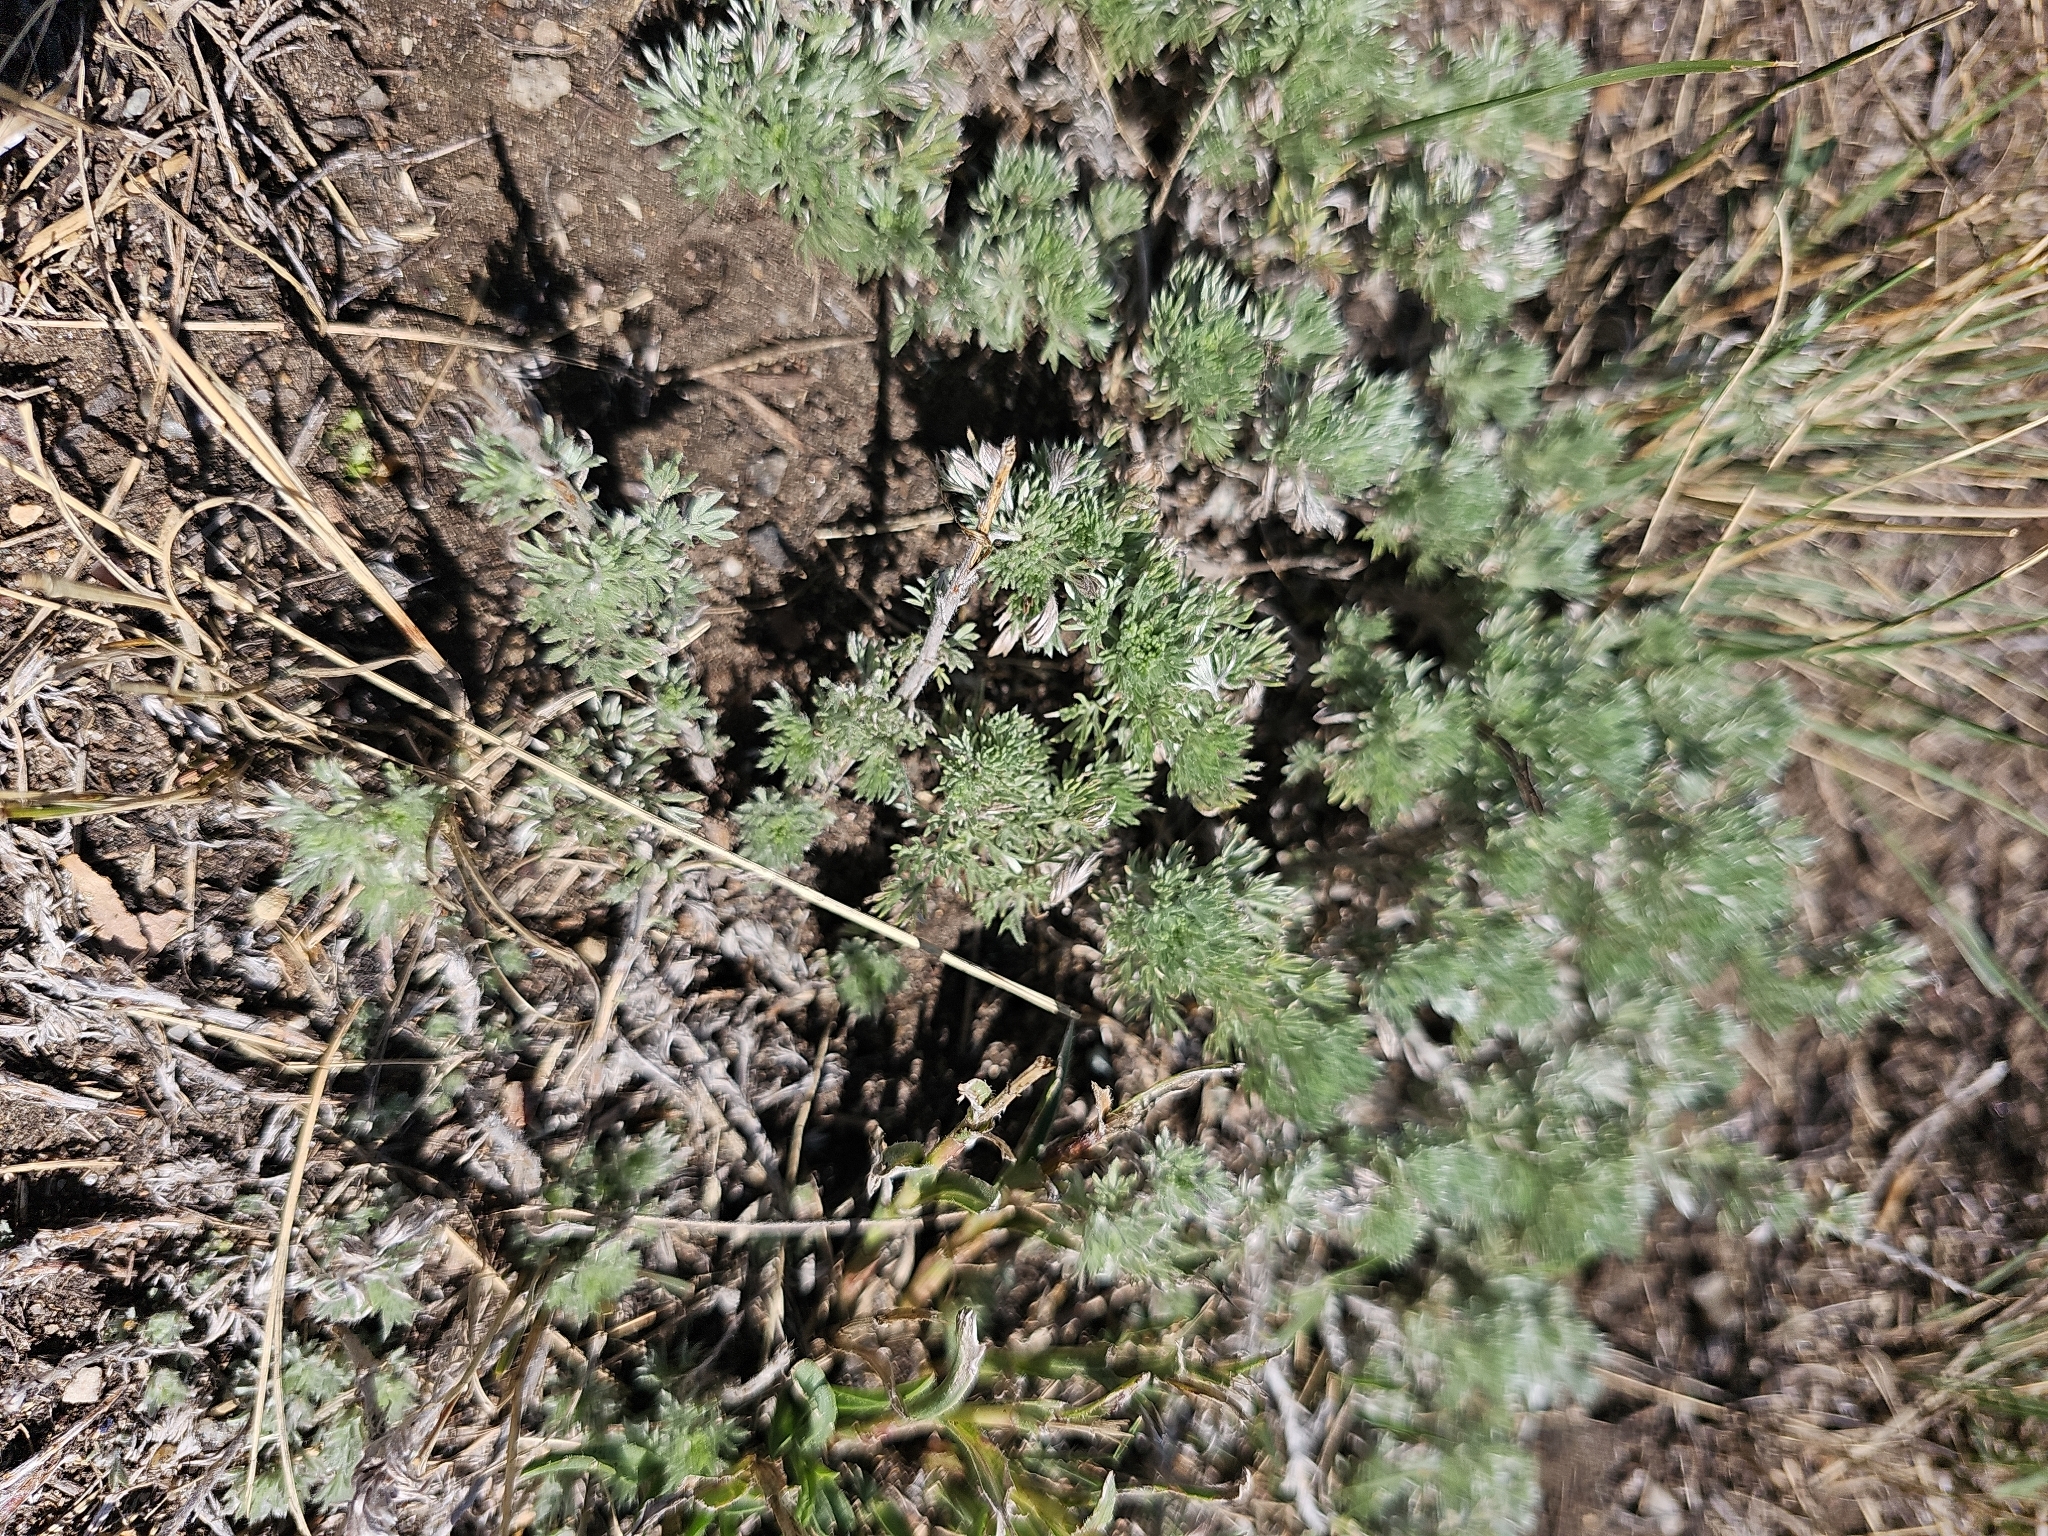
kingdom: Plantae
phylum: Tracheophyta
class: Magnoliopsida
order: Asterales
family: Asteraceae
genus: Artemisia
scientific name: Artemisia frigida
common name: Prairie sagewort
